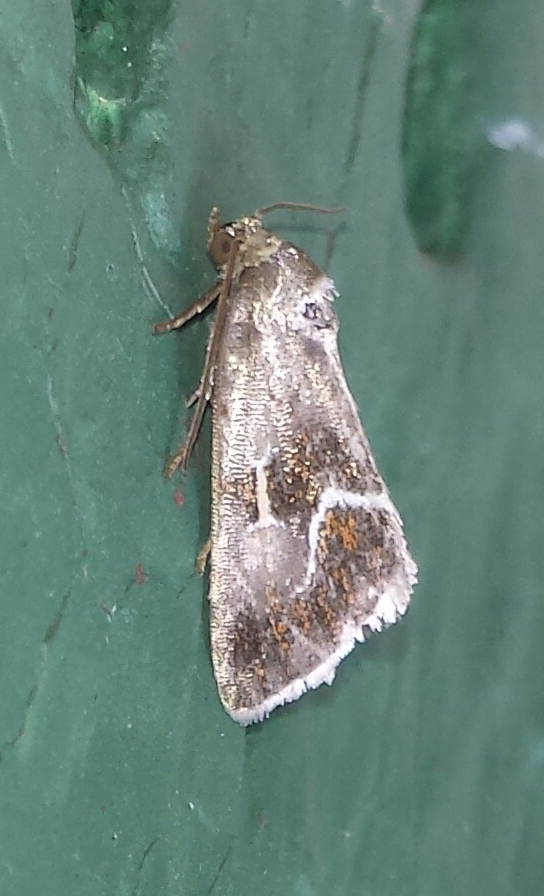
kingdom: Animalia
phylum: Arthropoda
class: Insecta
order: Lepidoptera
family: Noctuidae
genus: Deltote
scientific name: Deltote bellicula
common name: Bog glyph
